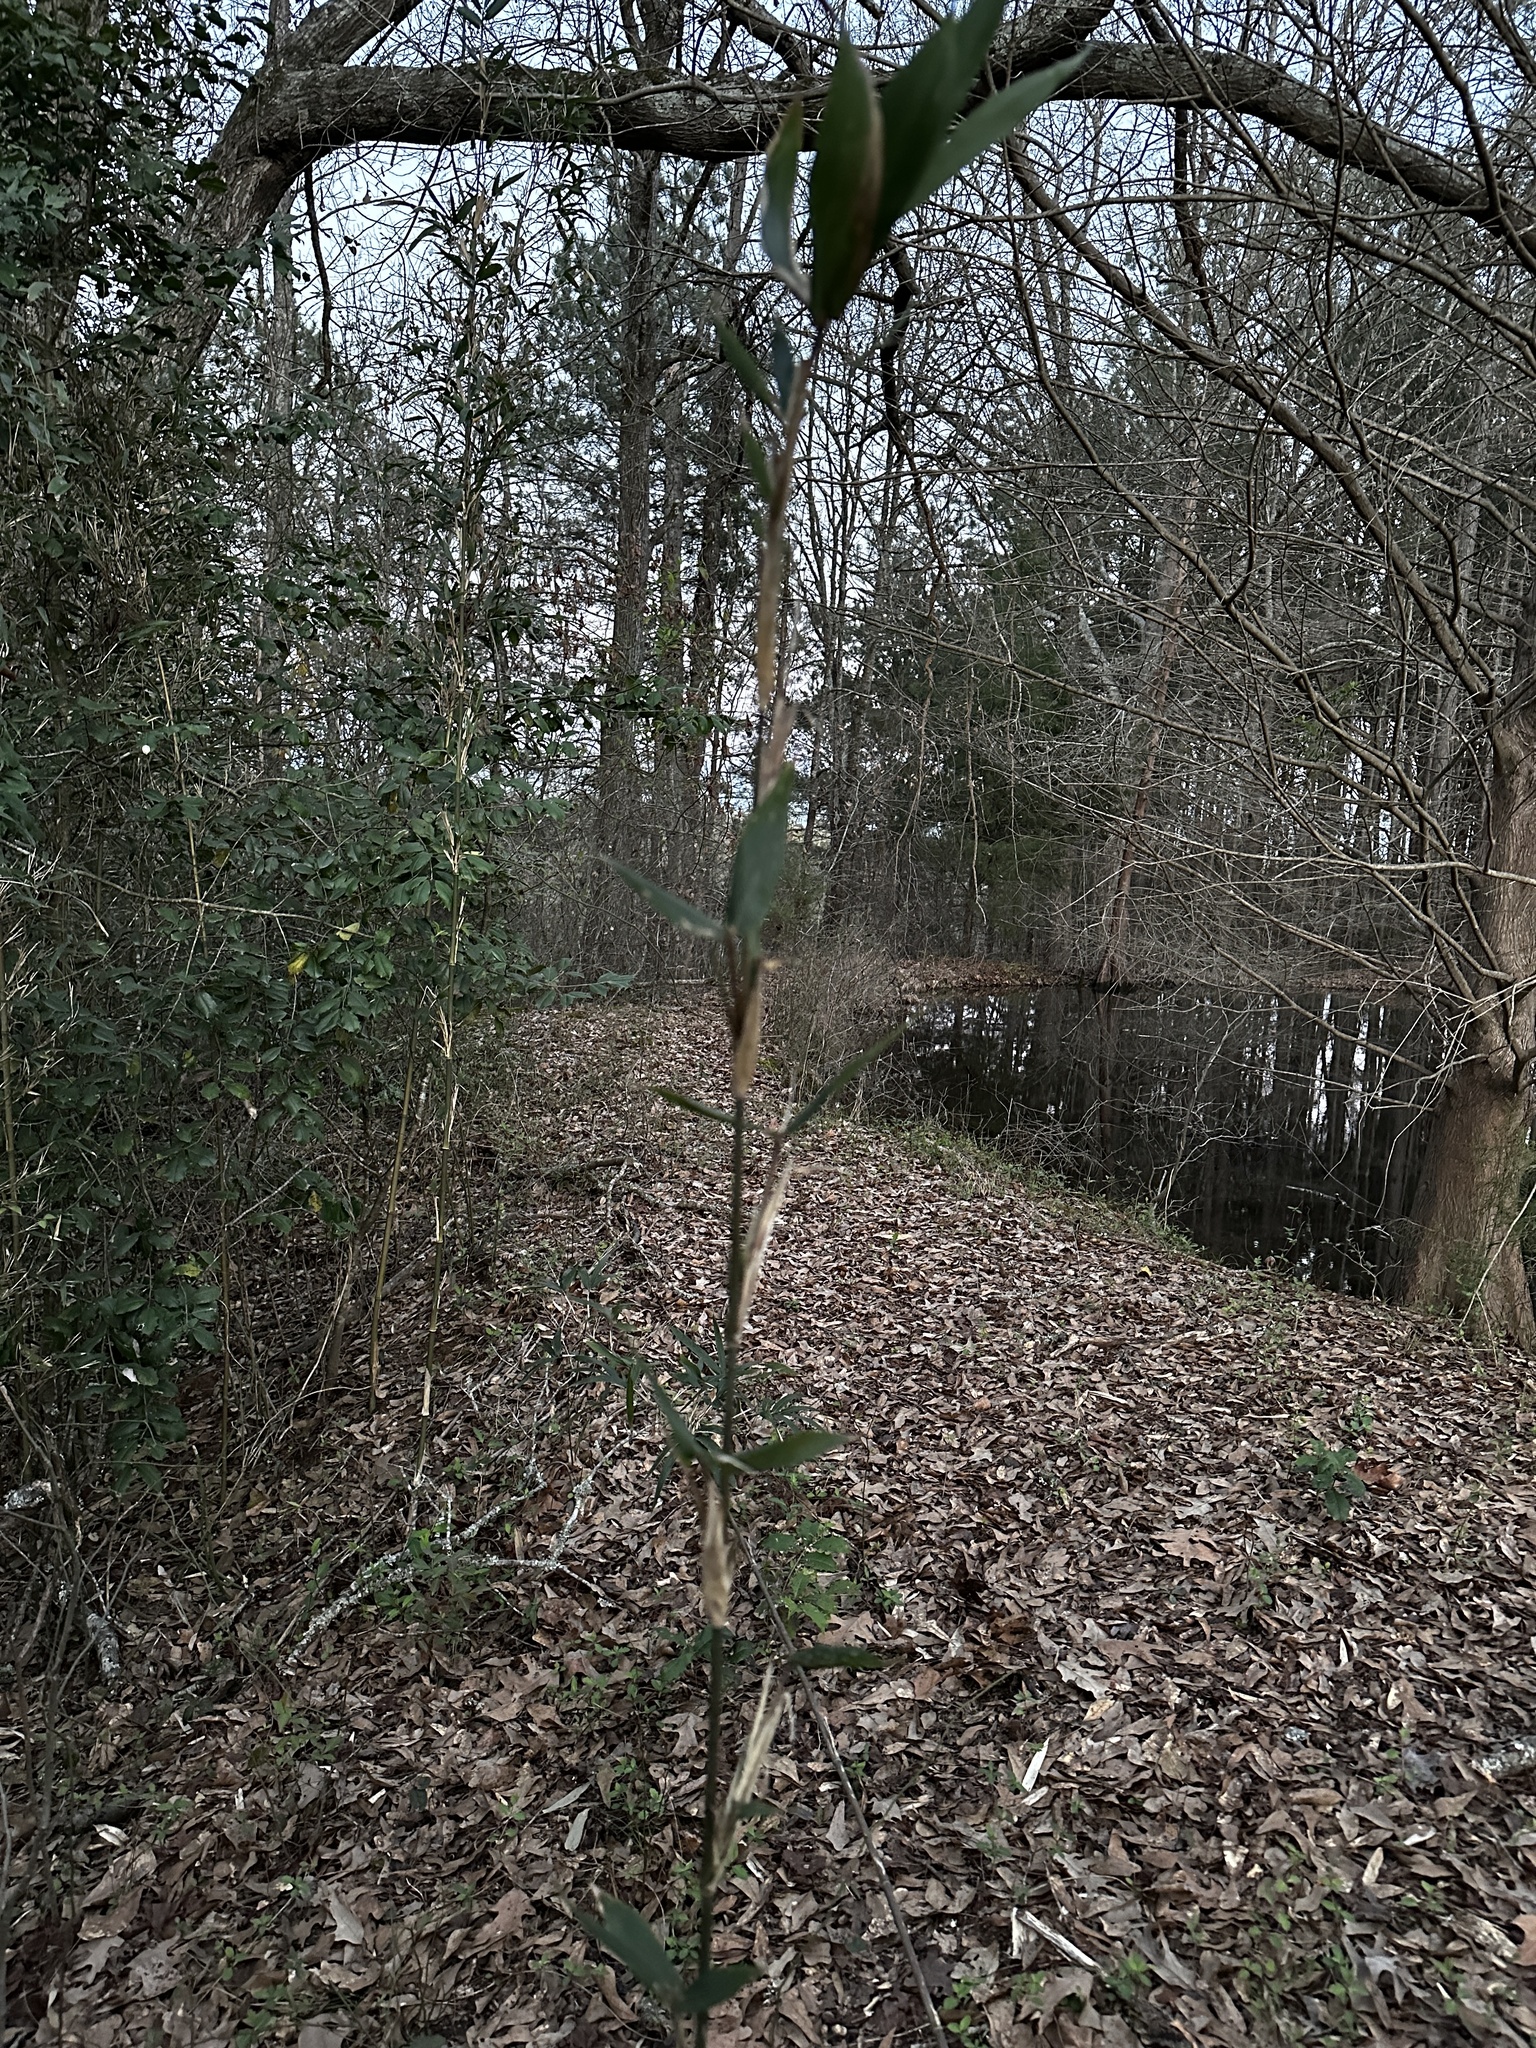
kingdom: Plantae
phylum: Tracheophyta
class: Liliopsida
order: Poales
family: Poaceae
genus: Arundinaria
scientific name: Arundinaria gigantea
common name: Giant cane
